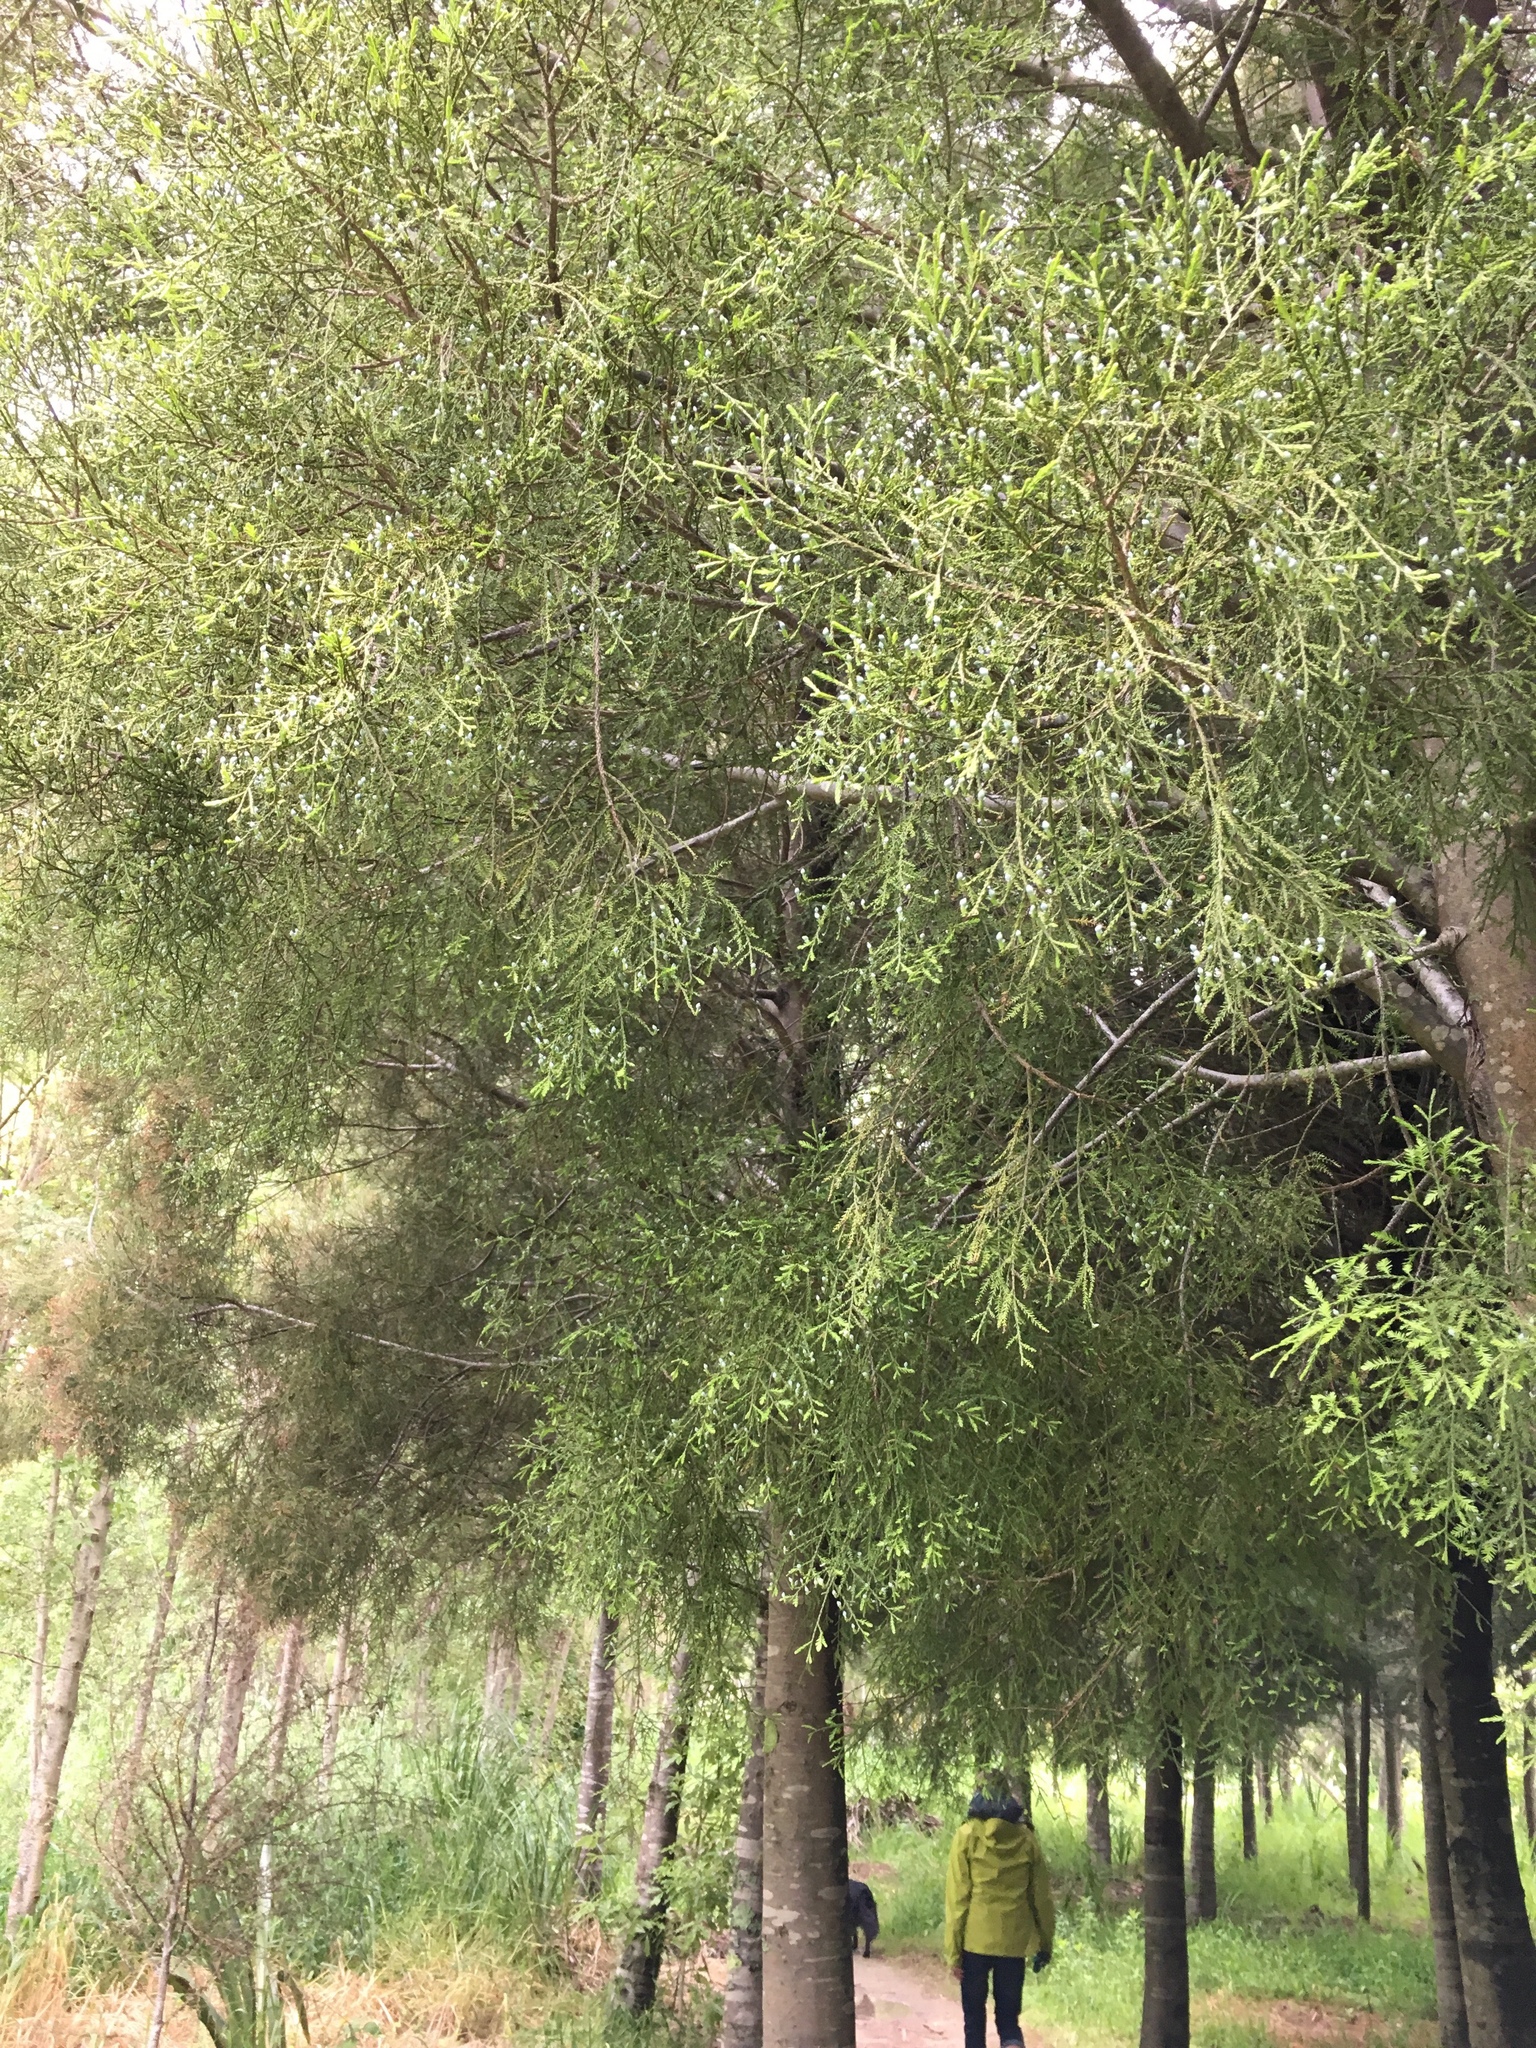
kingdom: Plantae
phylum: Tracheophyta
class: Pinopsida
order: Pinales
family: Podocarpaceae
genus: Dacrycarpus
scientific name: Dacrycarpus dacrydioides
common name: White pine
